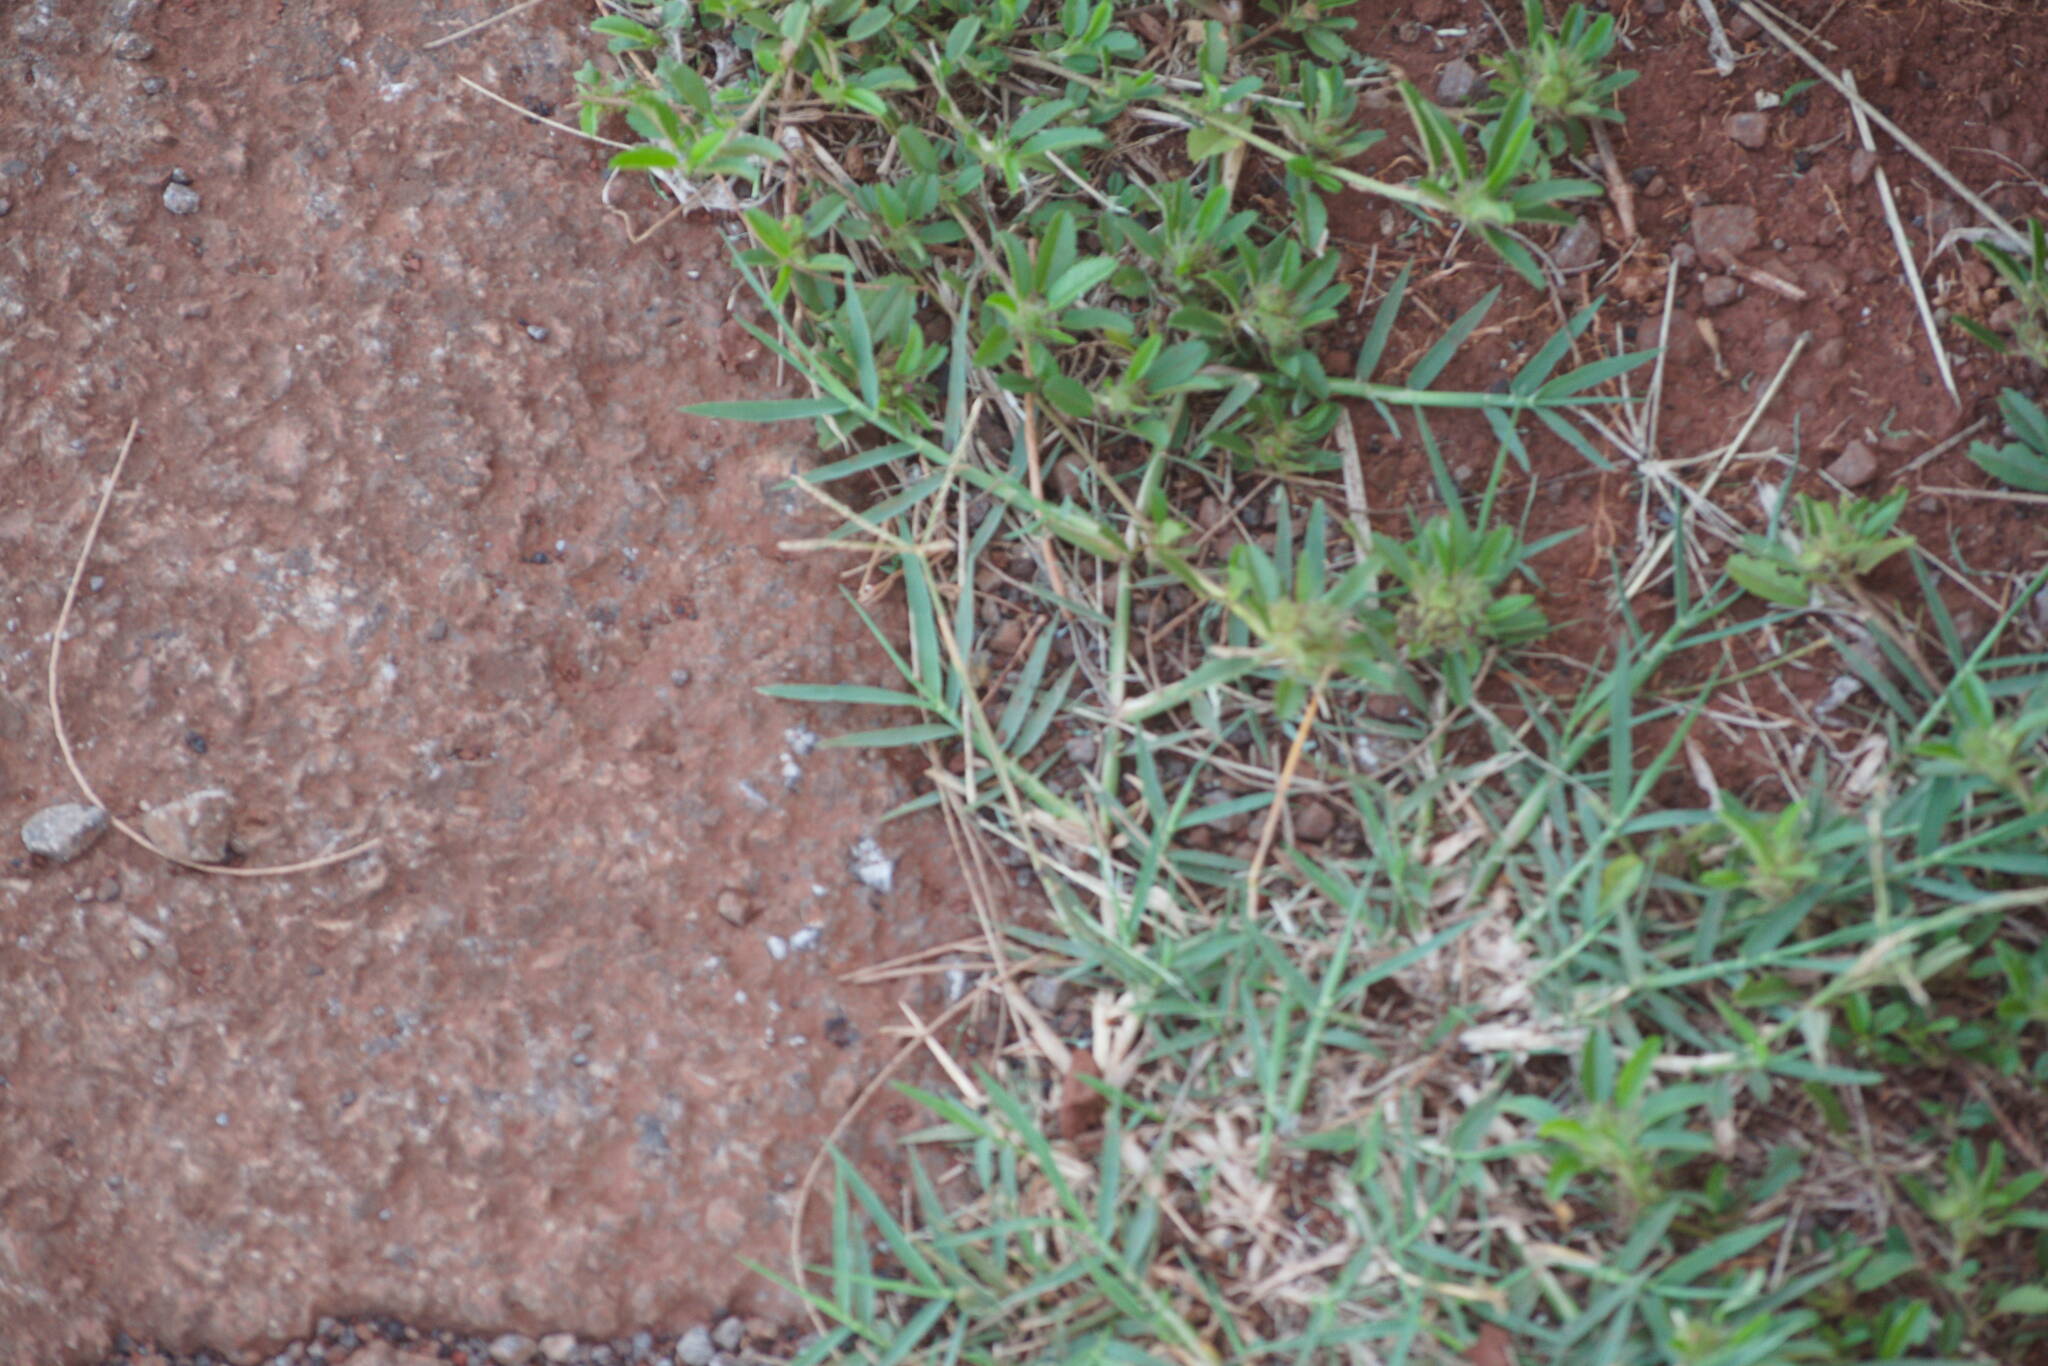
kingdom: Plantae
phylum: Tracheophyta
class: Liliopsida
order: Poales
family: Poaceae
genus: Cynodon
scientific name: Cynodon dactylon
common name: Bermuda grass
